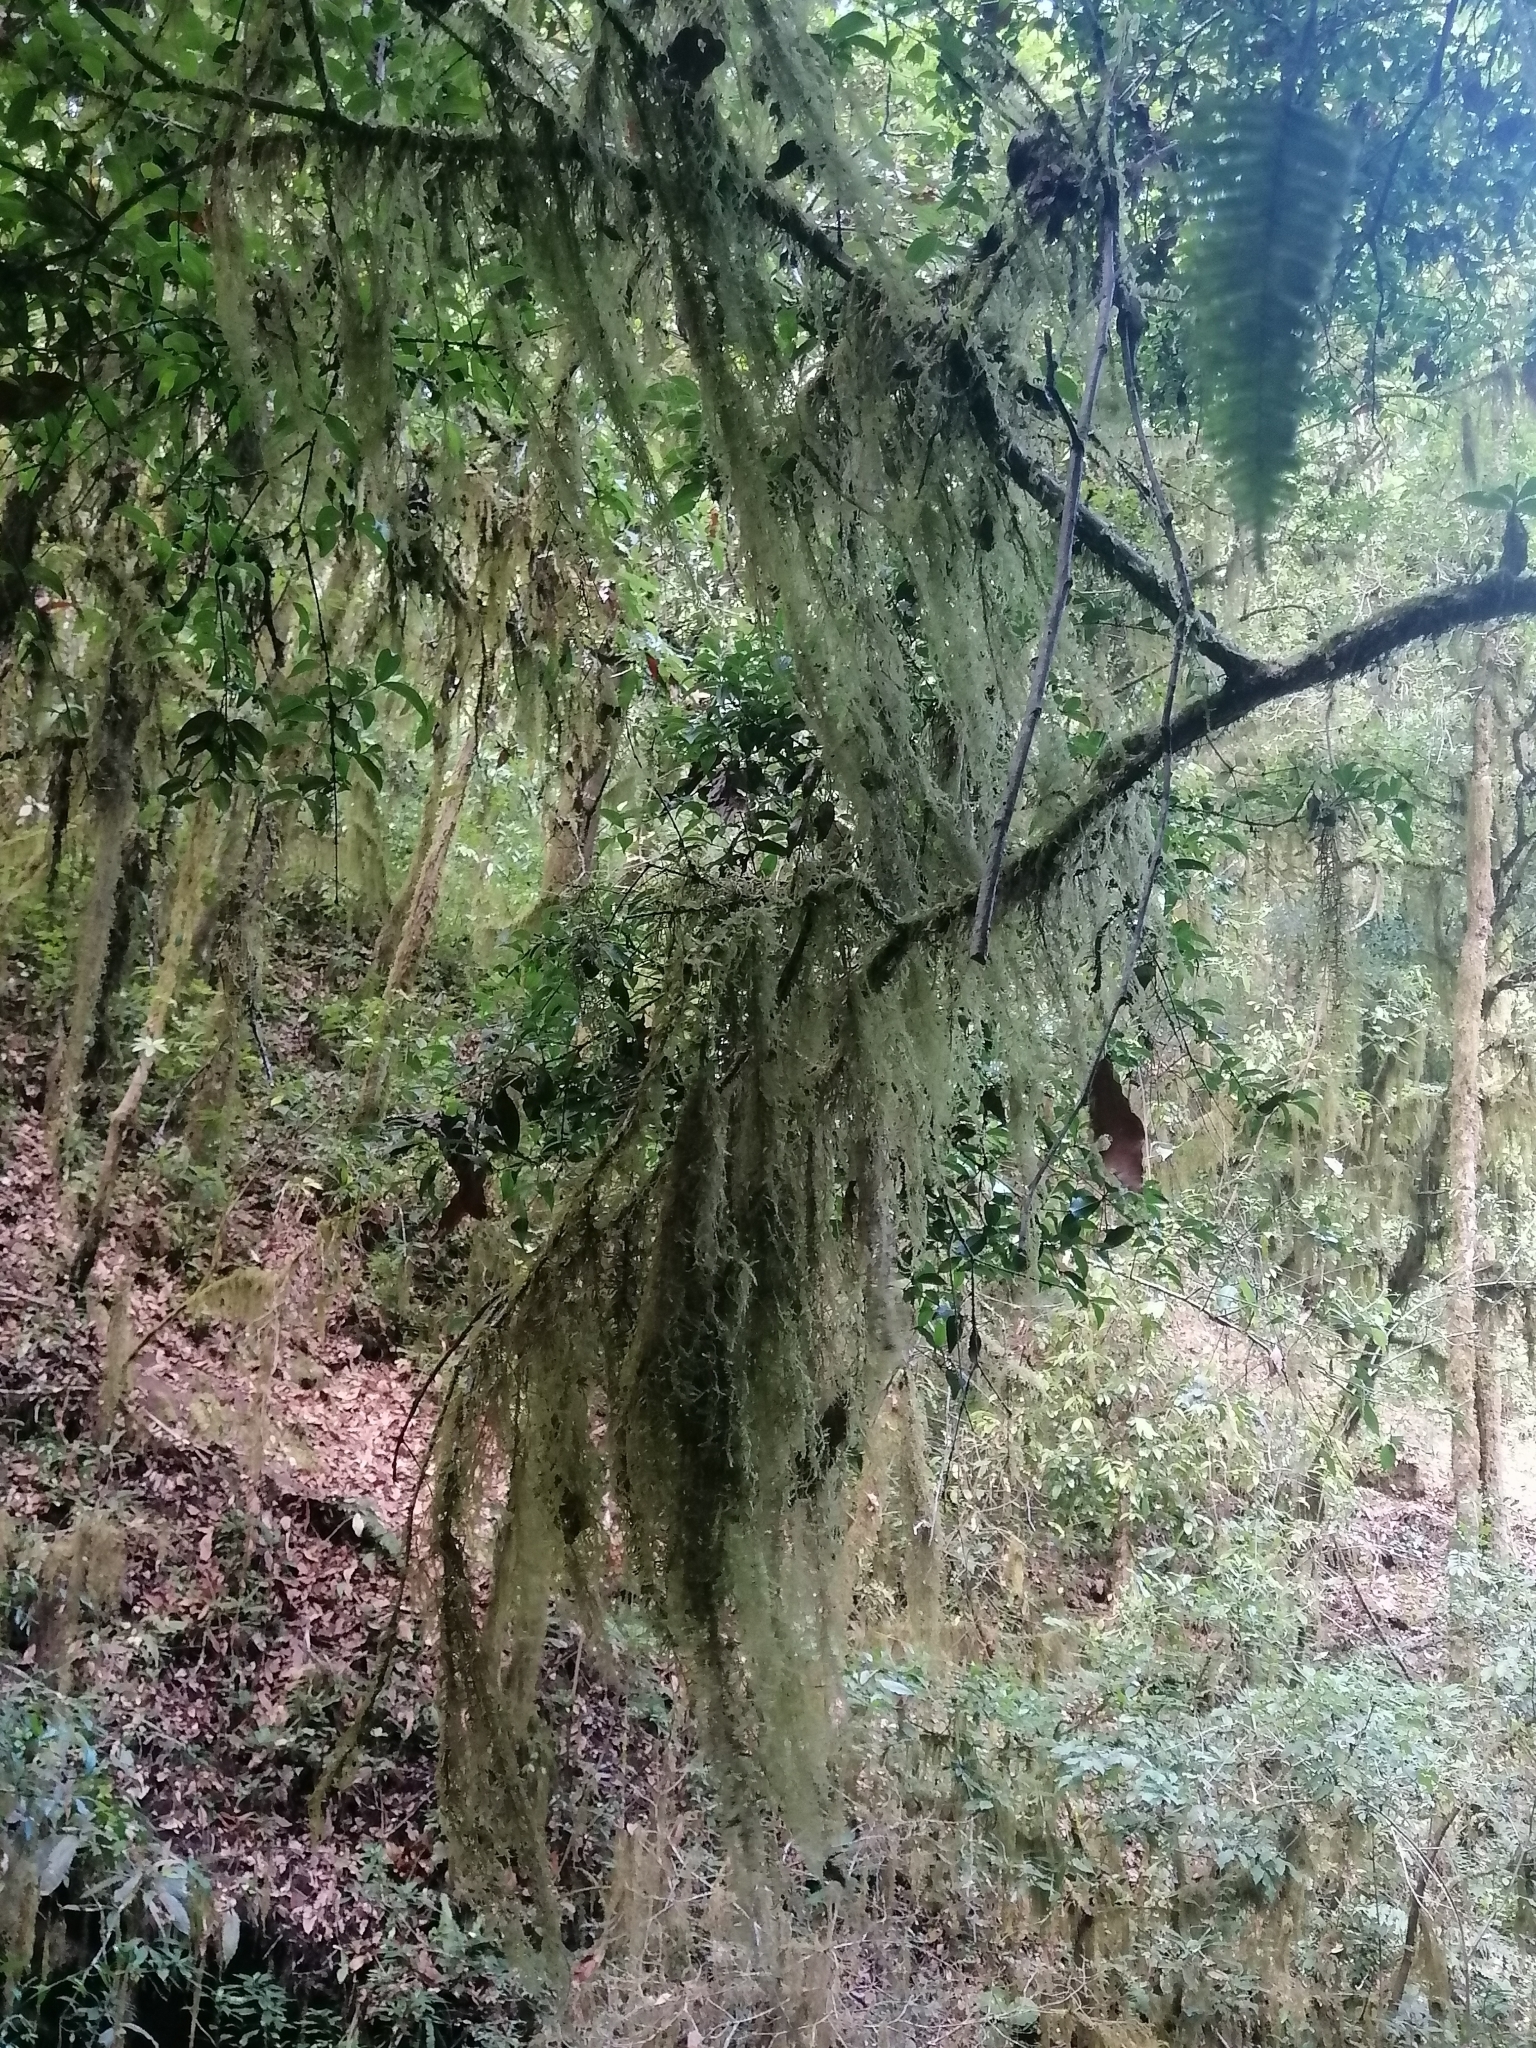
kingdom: Plantae
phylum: Tracheophyta
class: Liliopsida
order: Poales
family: Bromeliaceae
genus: Tillandsia
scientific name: Tillandsia usneoides
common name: Spanish moss
